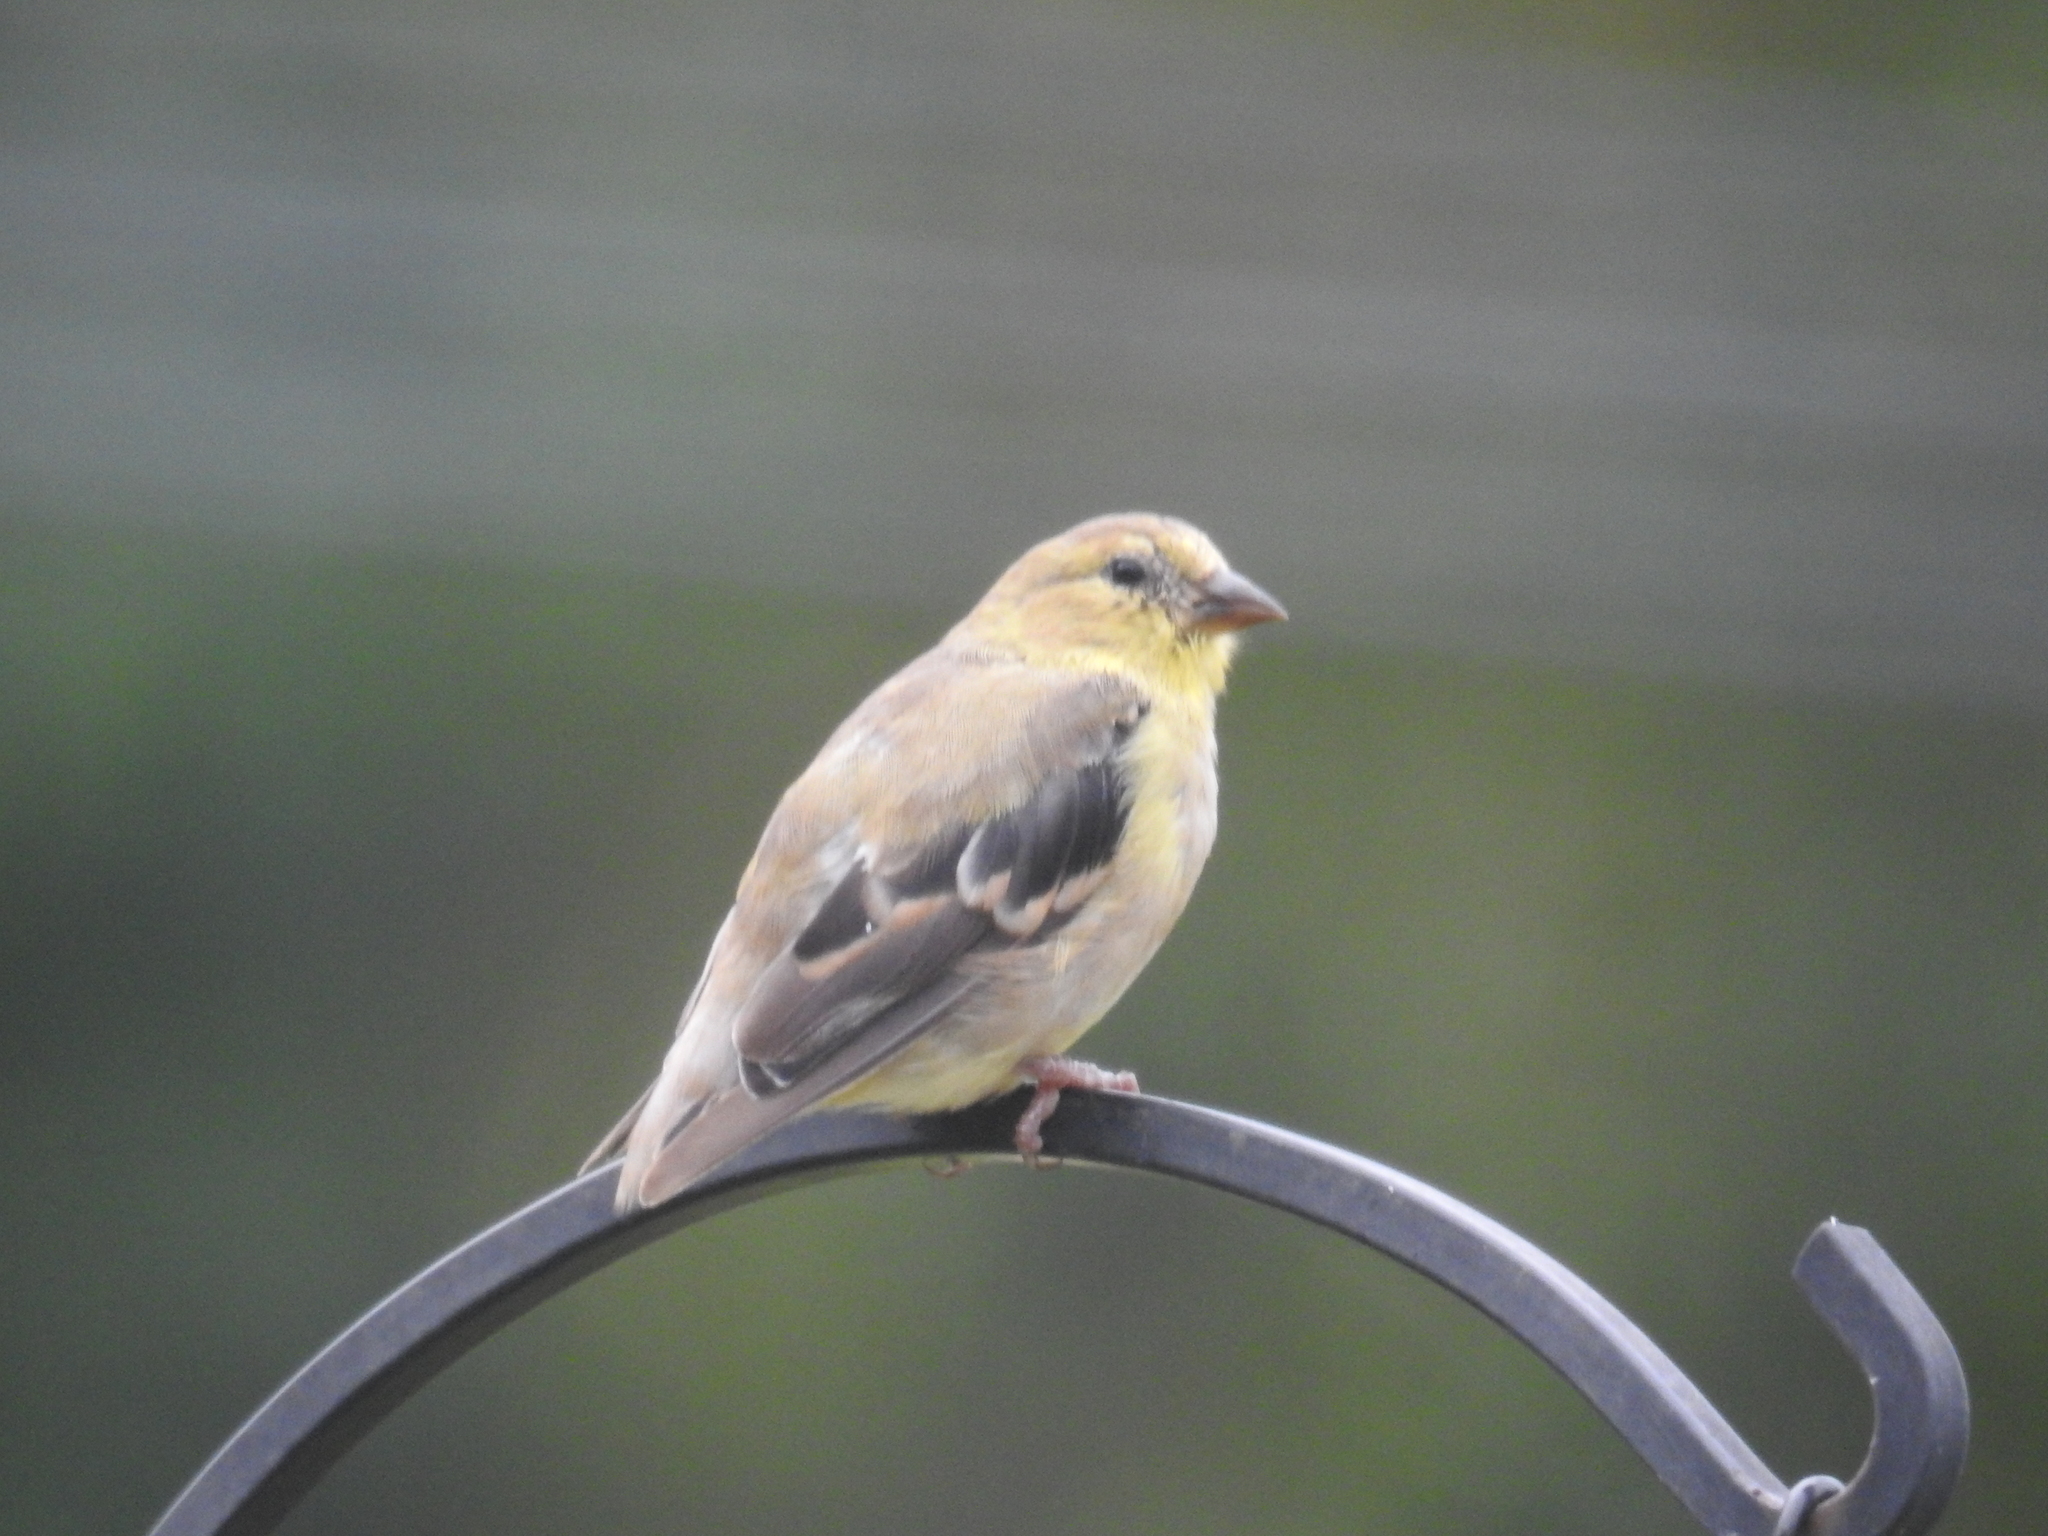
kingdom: Animalia
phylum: Chordata
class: Aves
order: Passeriformes
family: Fringillidae
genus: Spinus
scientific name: Spinus tristis
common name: American goldfinch
